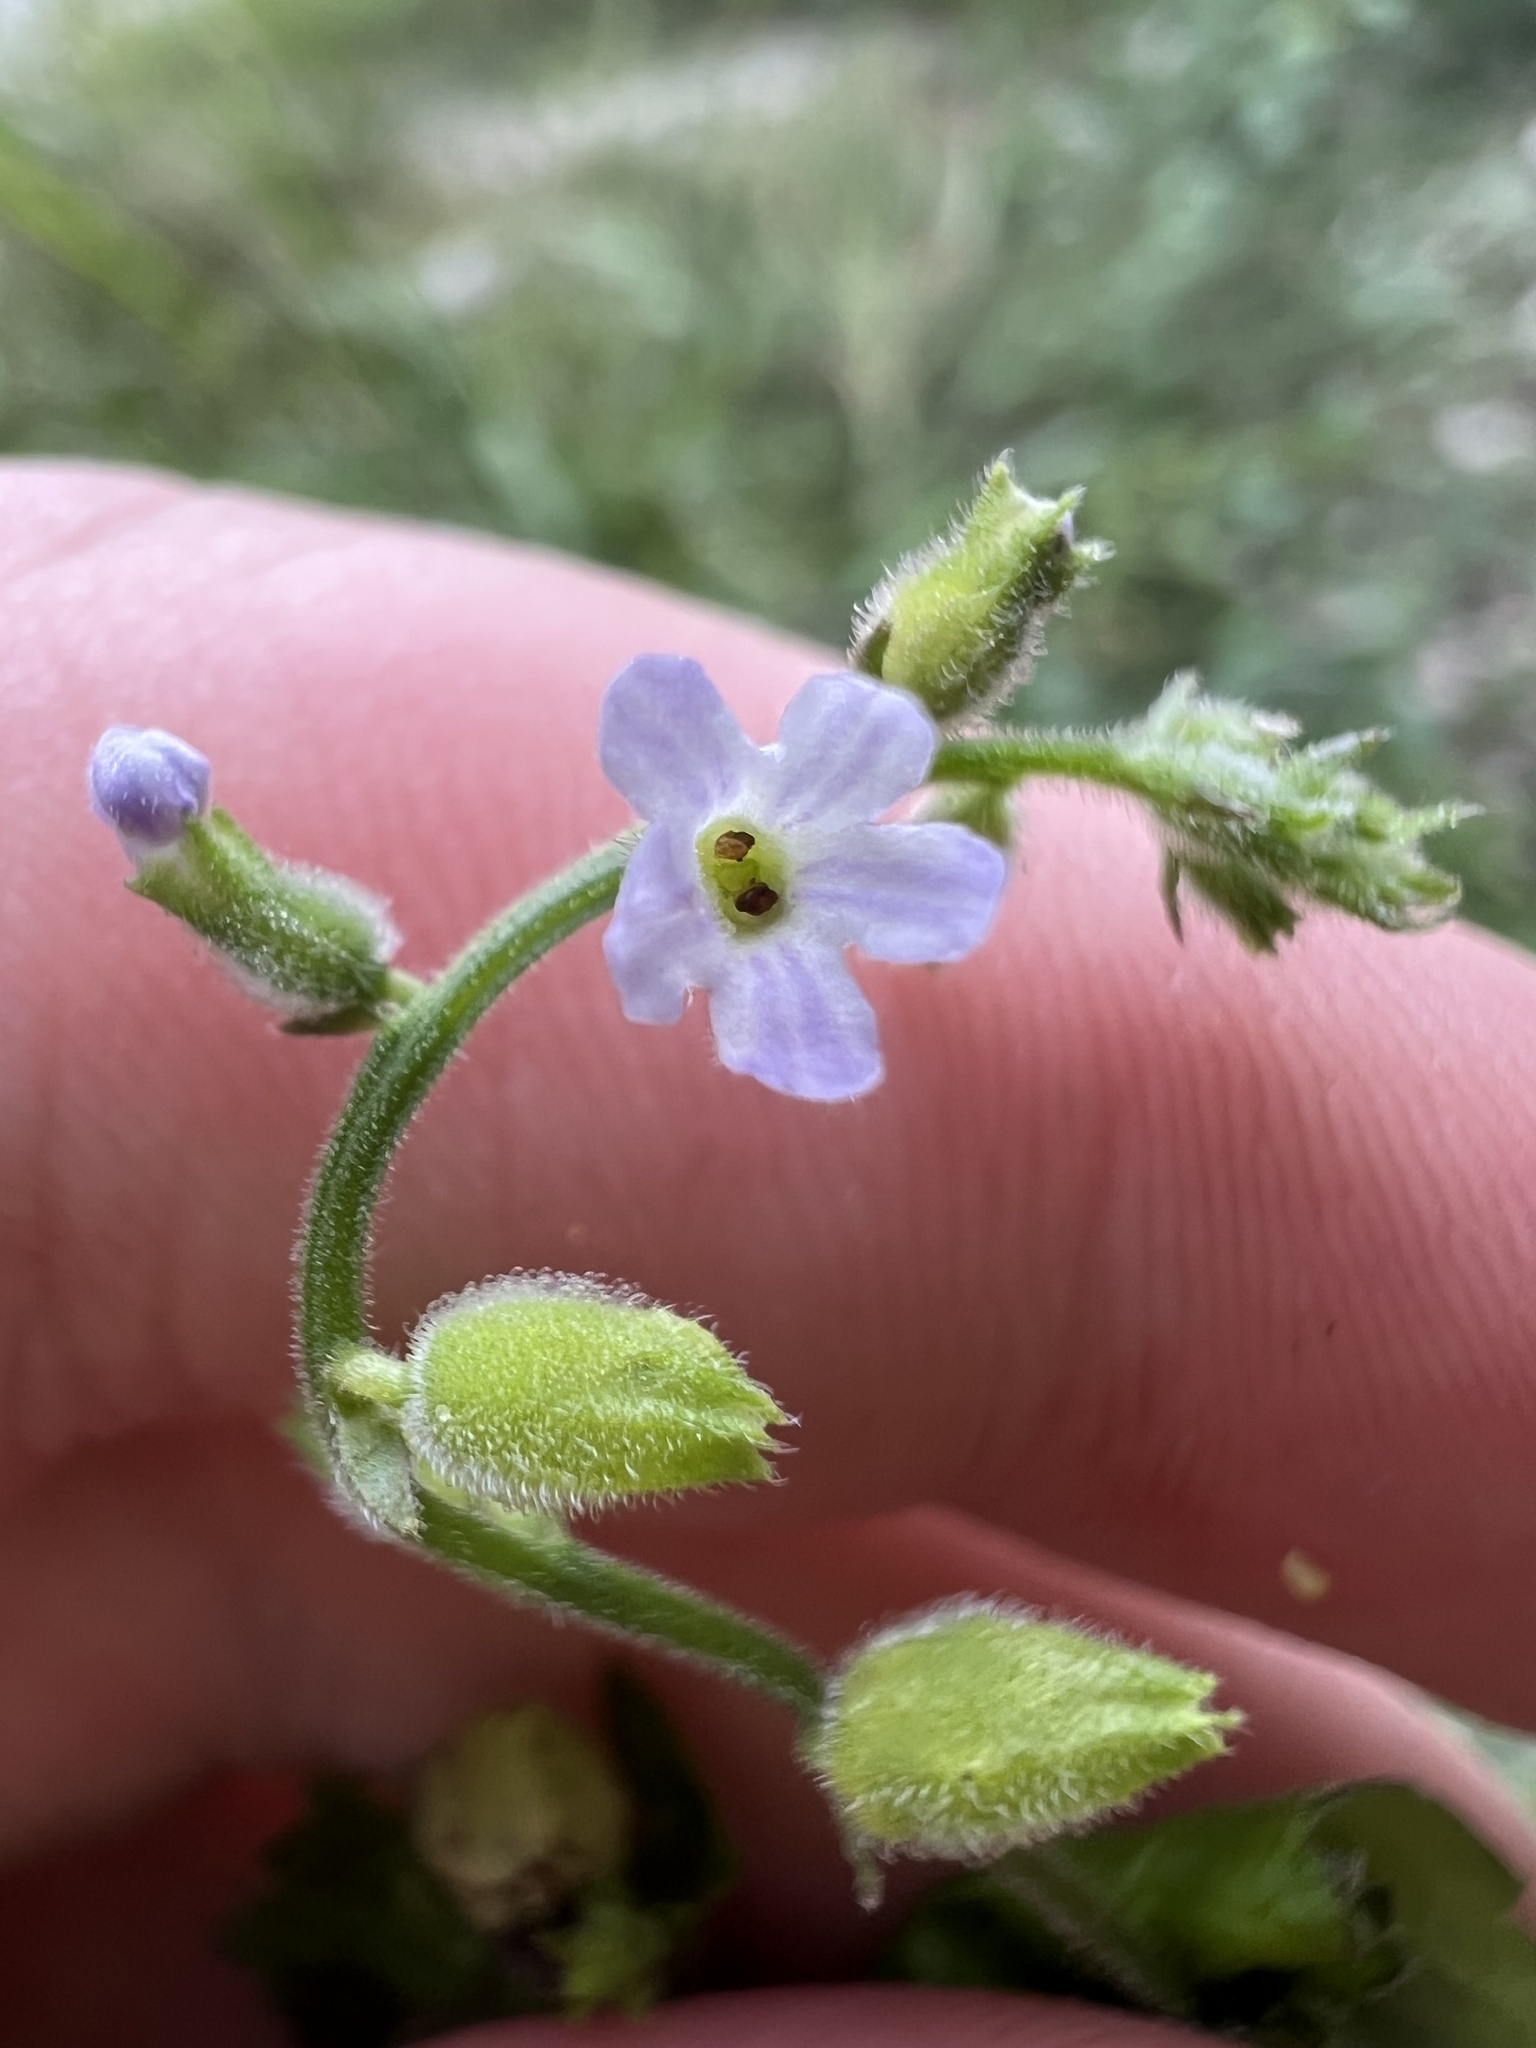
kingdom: Plantae
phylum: Tracheophyta
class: Magnoliopsida
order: Lamiales
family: Verbenaceae
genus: Priva
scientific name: Priva lappulacea
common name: Fasten-'pon-coat
